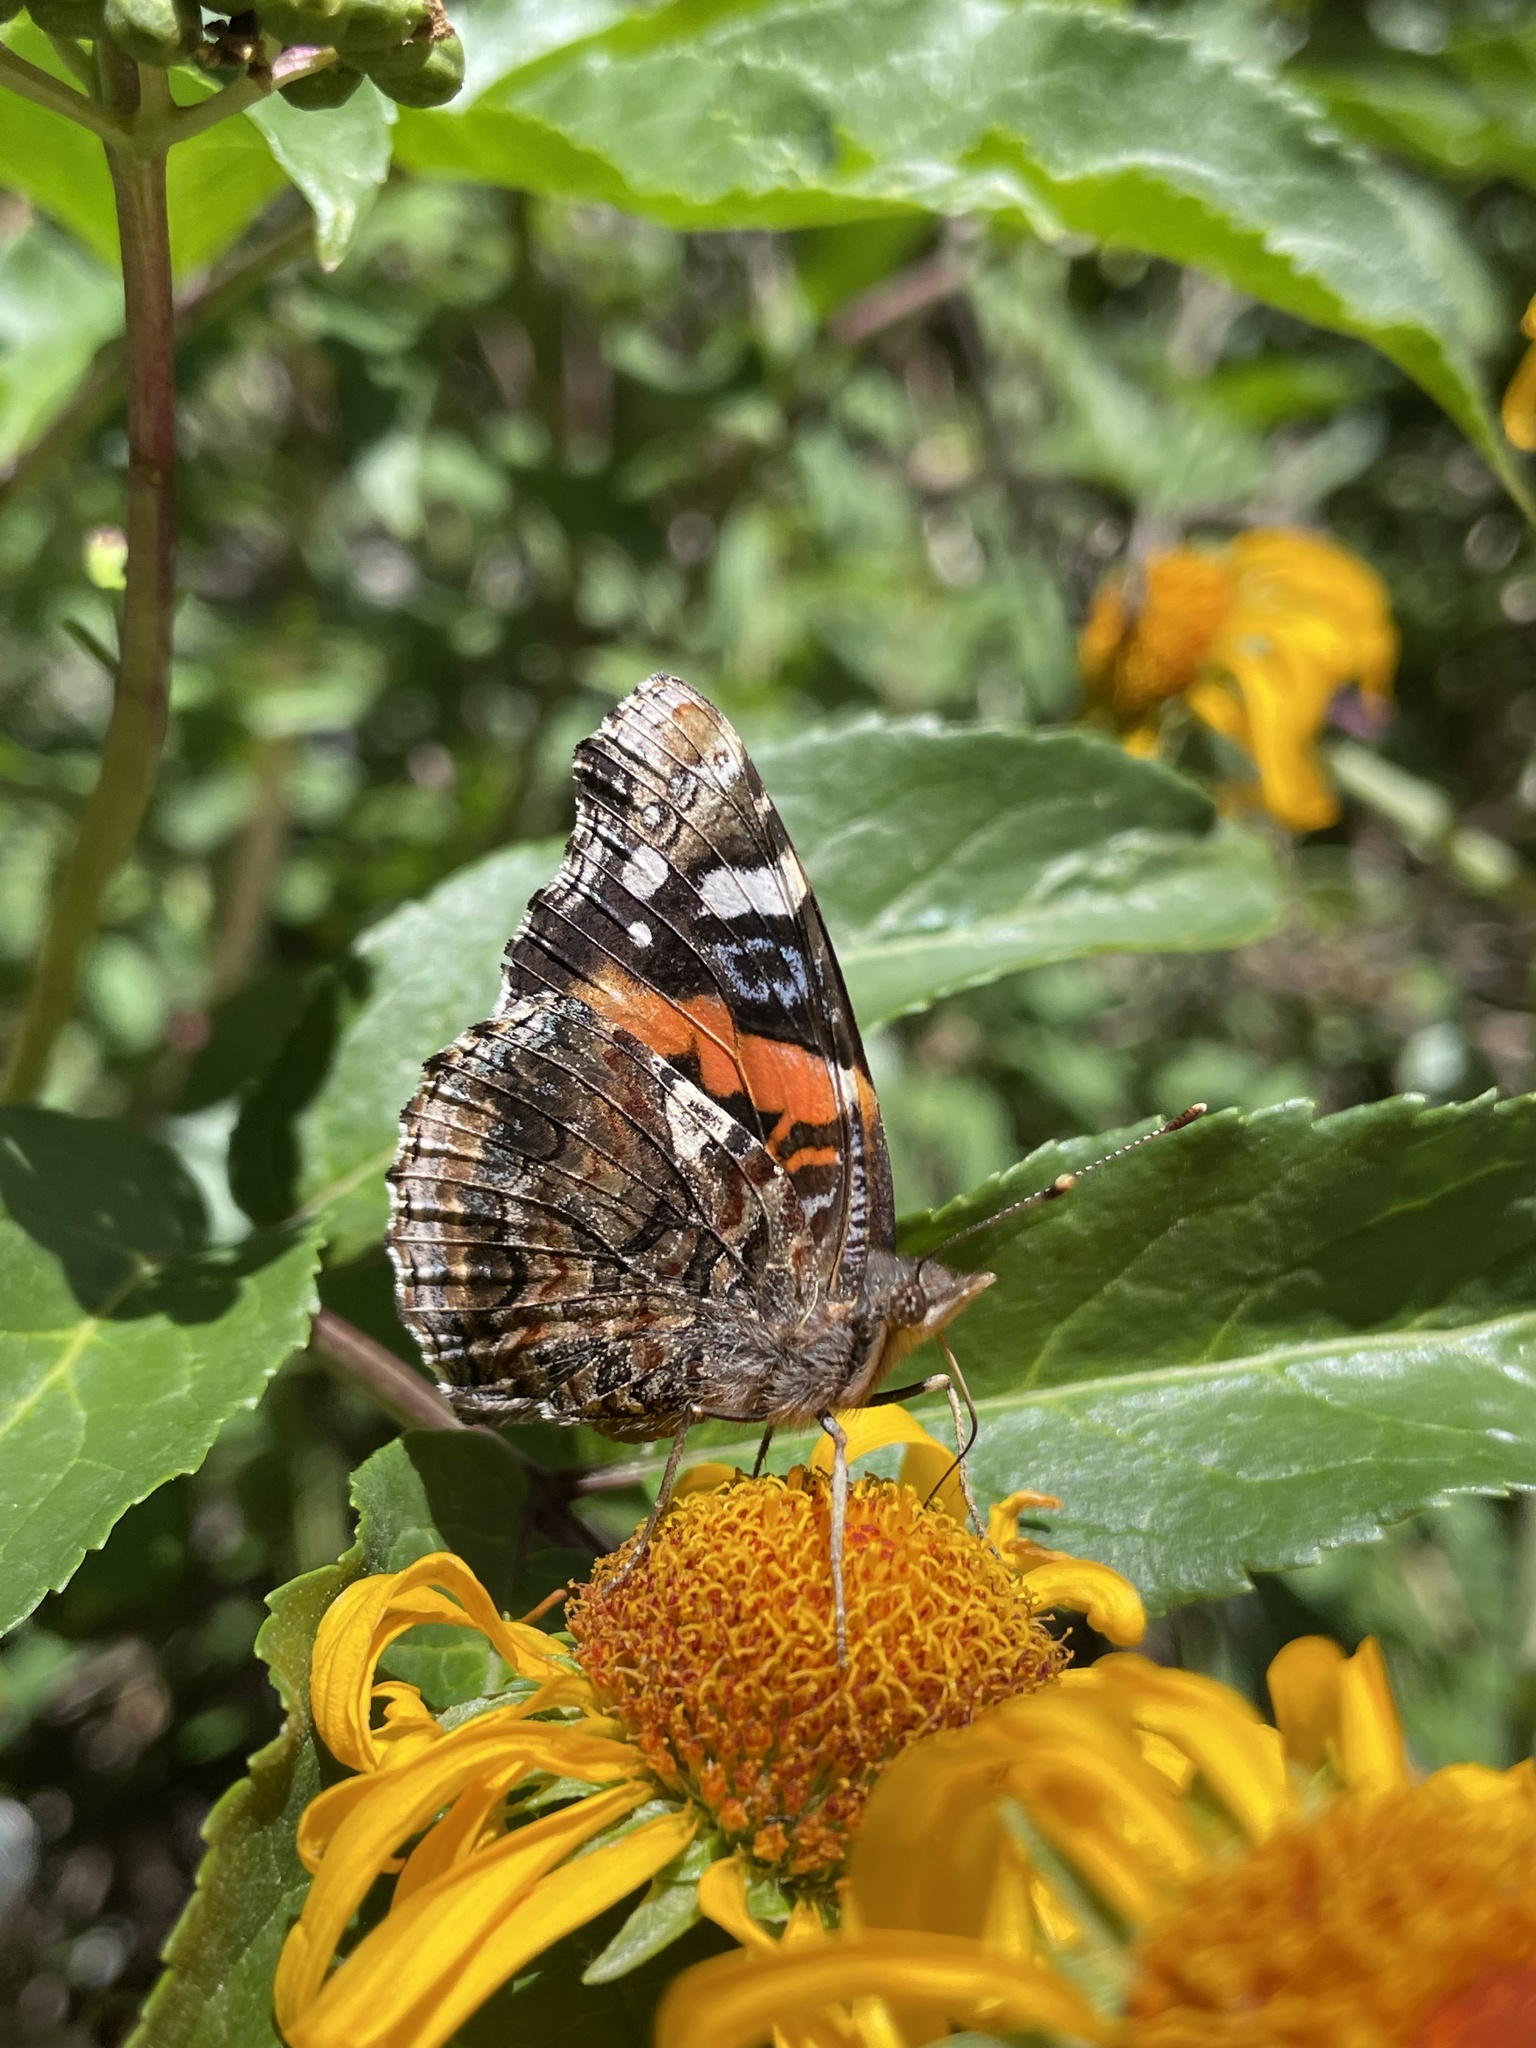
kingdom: Animalia
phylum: Arthropoda
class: Insecta
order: Lepidoptera
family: Nymphalidae
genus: Vanessa
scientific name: Vanessa atalanta
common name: Red admiral
